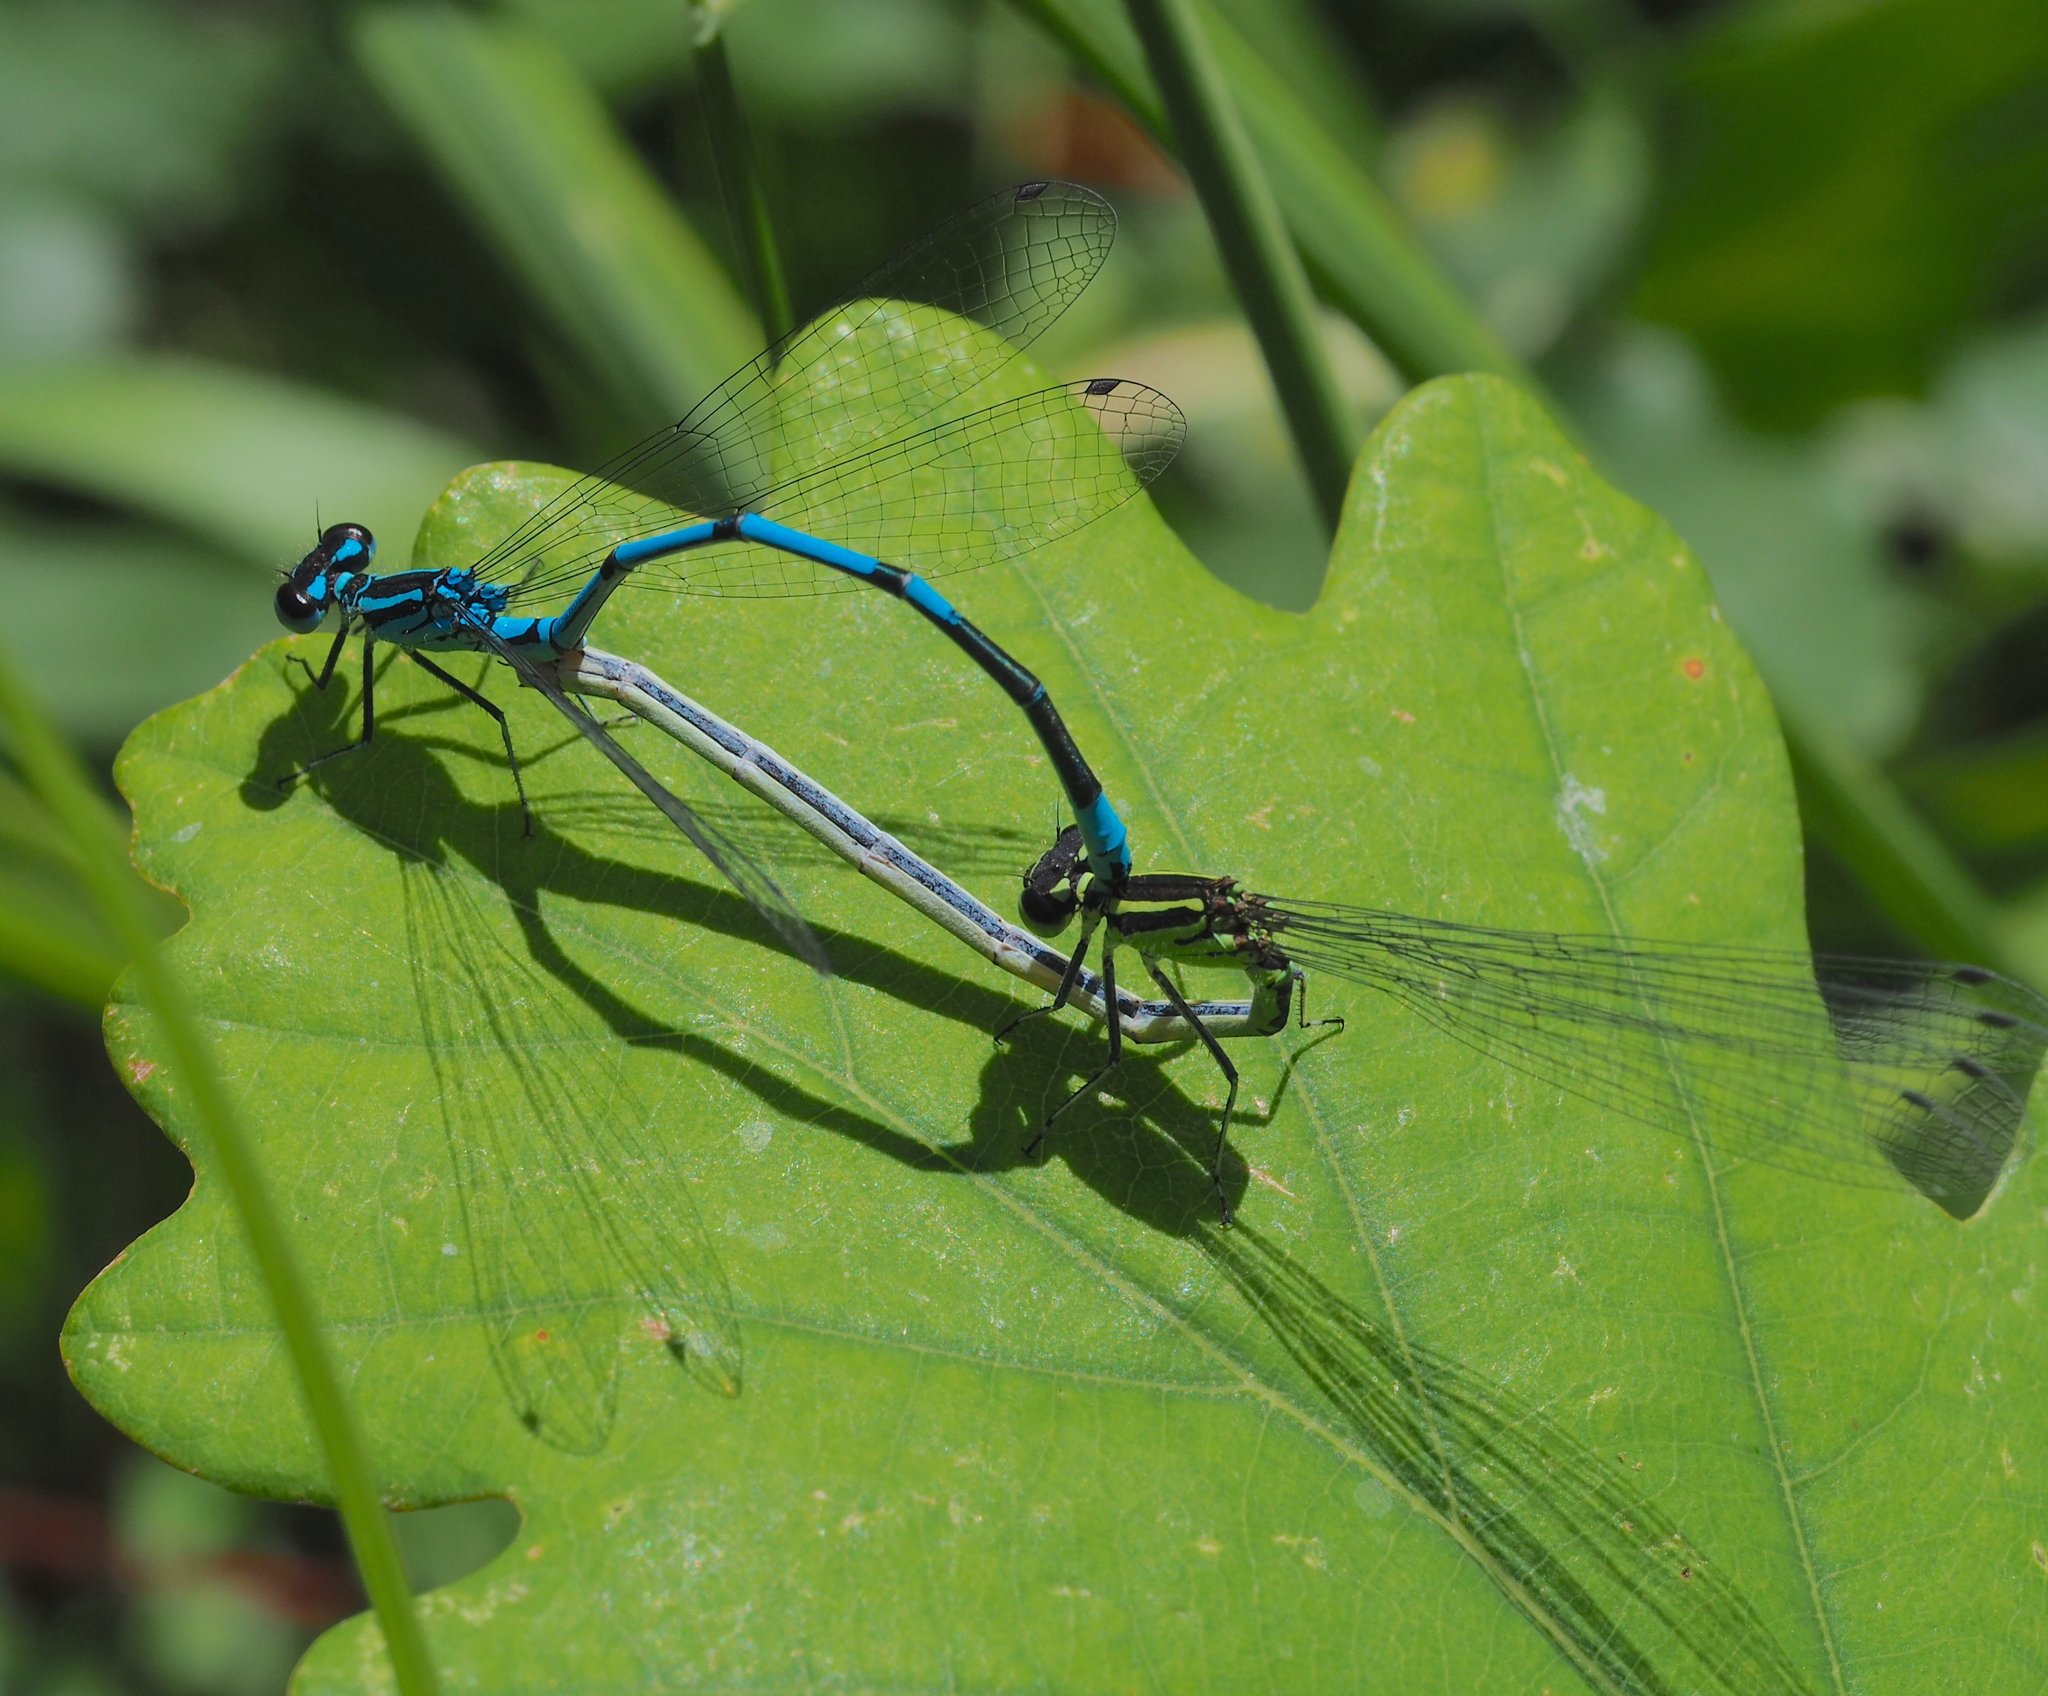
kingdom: Animalia
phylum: Arthropoda
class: Insecta
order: Odonata
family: Coenagrionidae
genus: Coenagrion
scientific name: Coenagrion puella
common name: Azure damselfly
